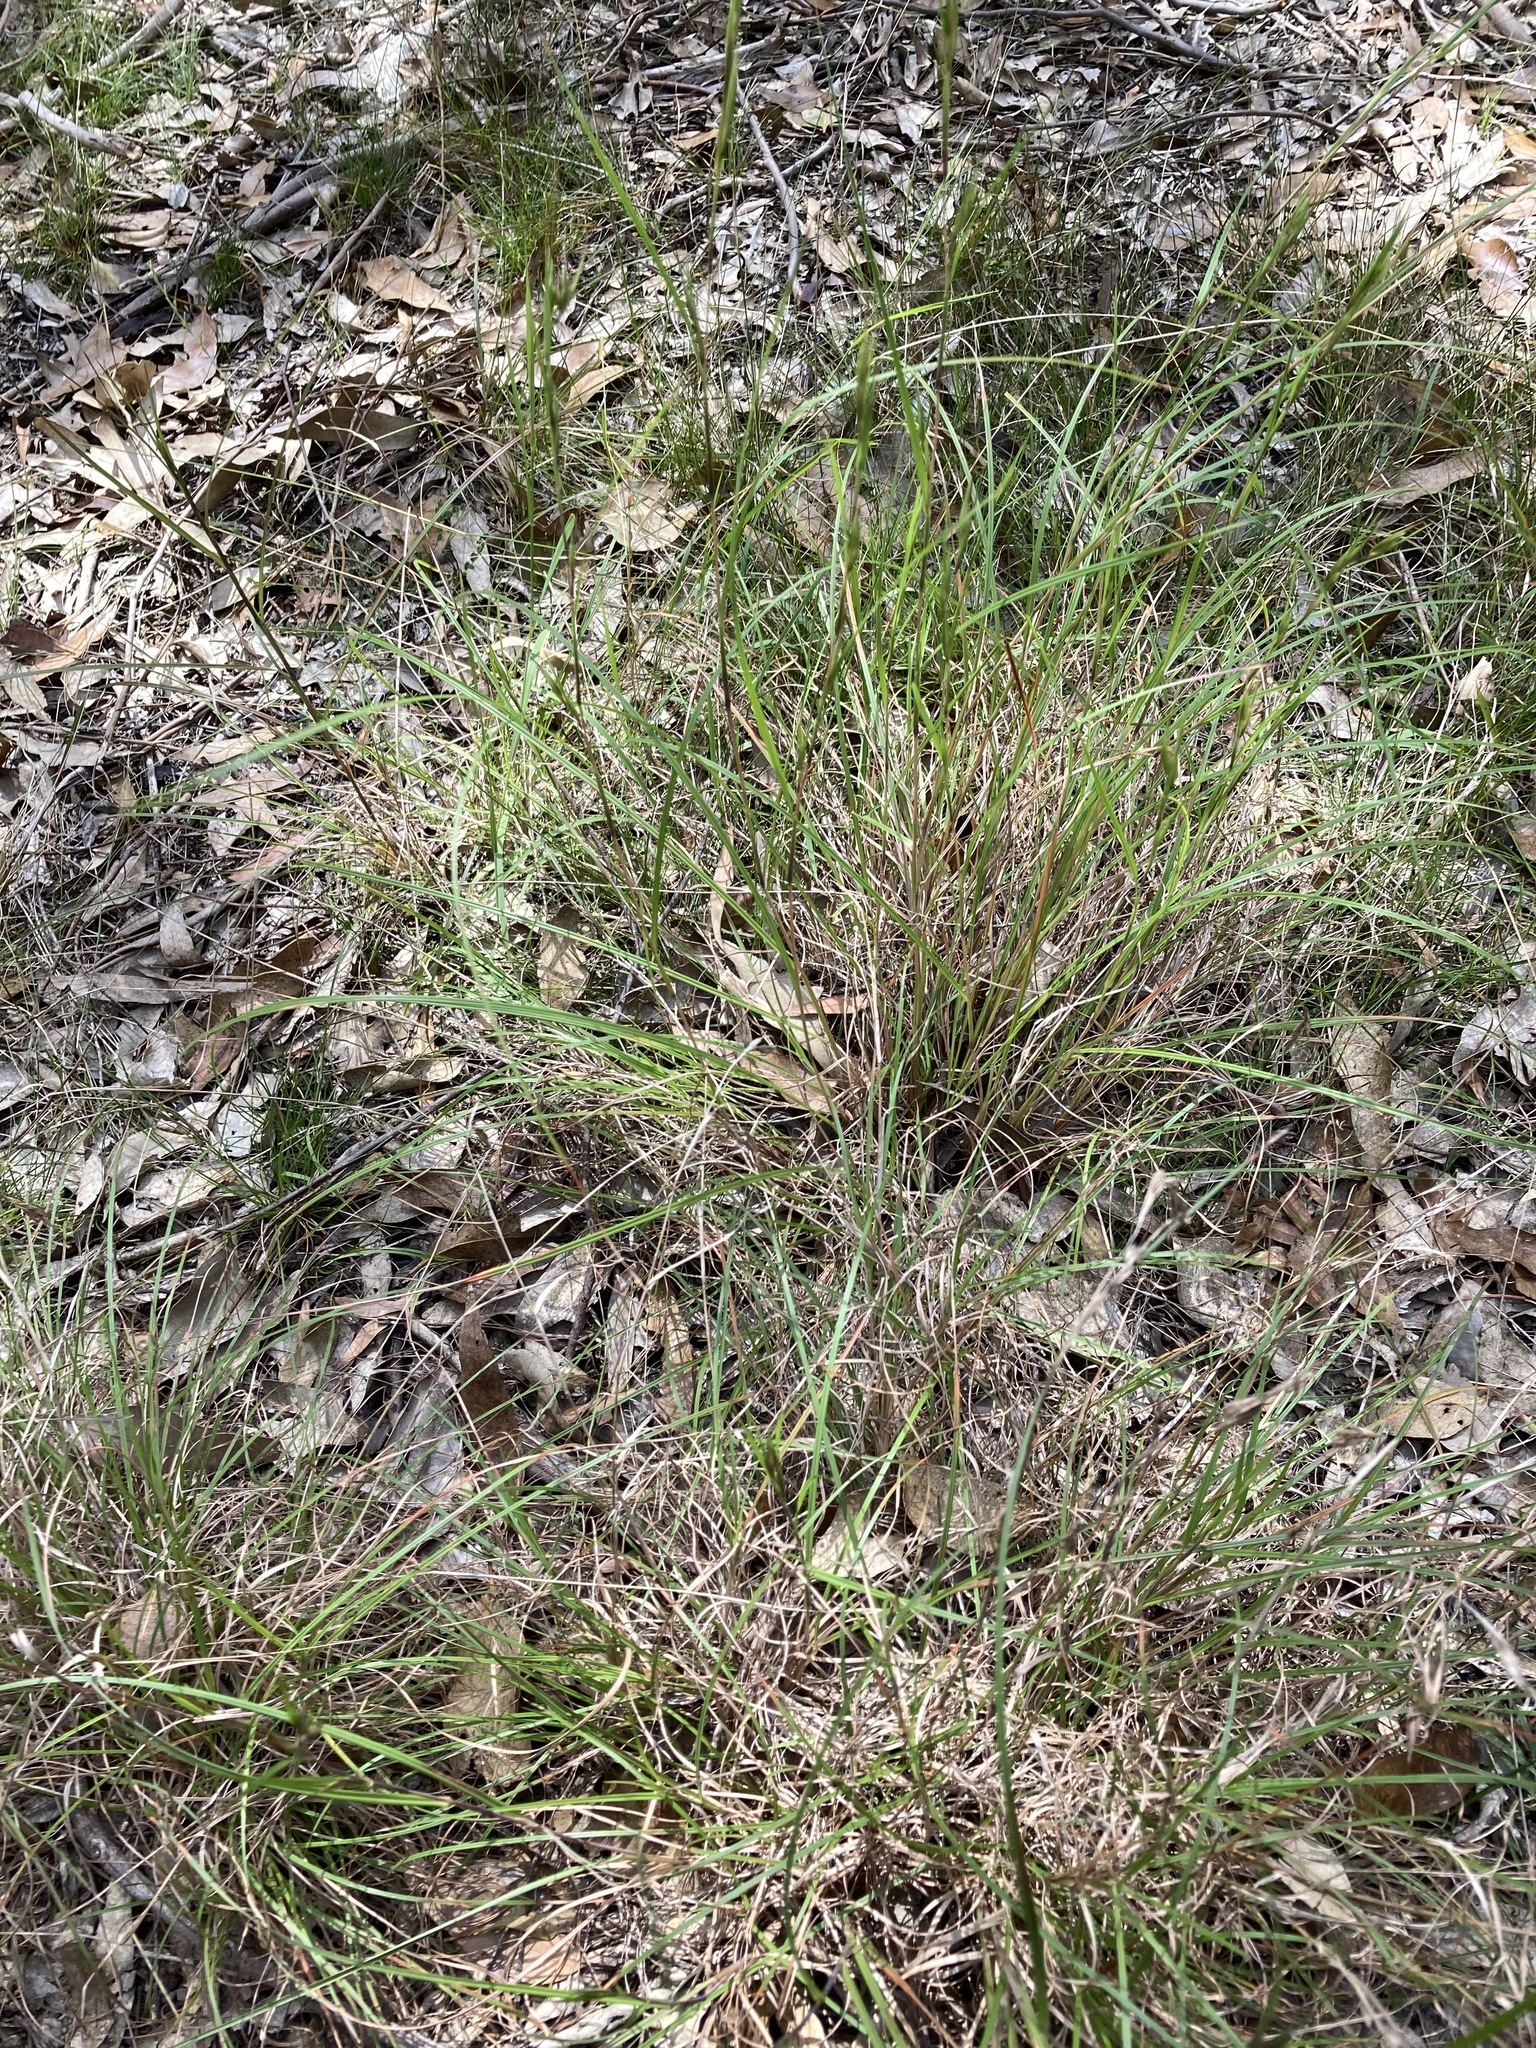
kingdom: Plantae
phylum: Tracheophyta
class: Liliopsida
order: Poales
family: Poaceae
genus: Themeda
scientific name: Themeda triandra
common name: Kangaroo grass
